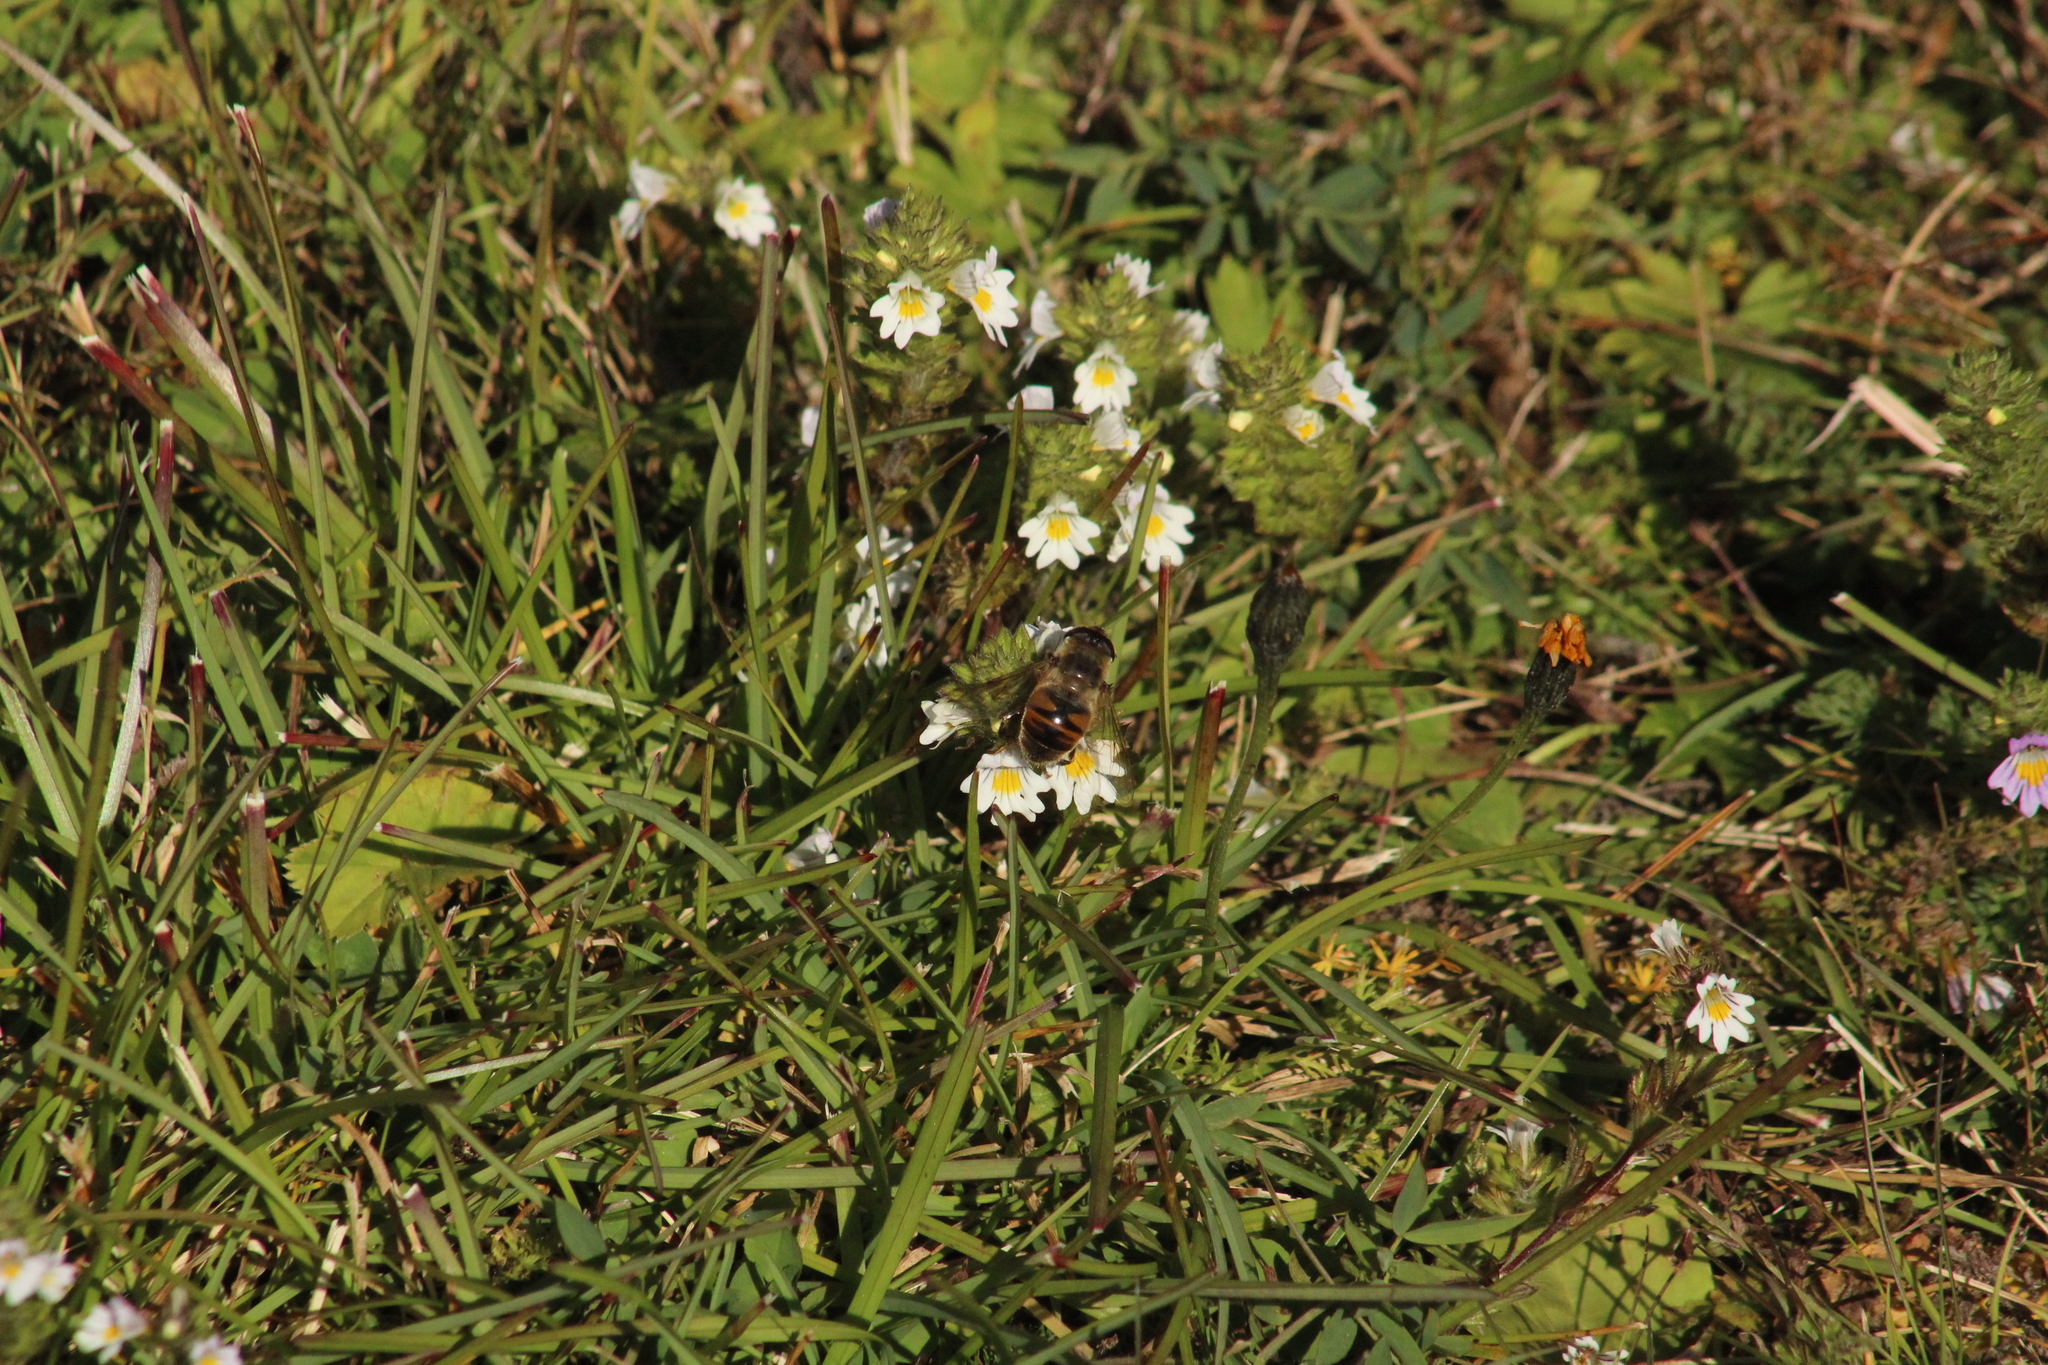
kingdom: Animalia
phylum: Arthropoda
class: Insecta
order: Diptera
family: Syrphidae
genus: Eristalis
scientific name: Eristalis tenax
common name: Drone fly
